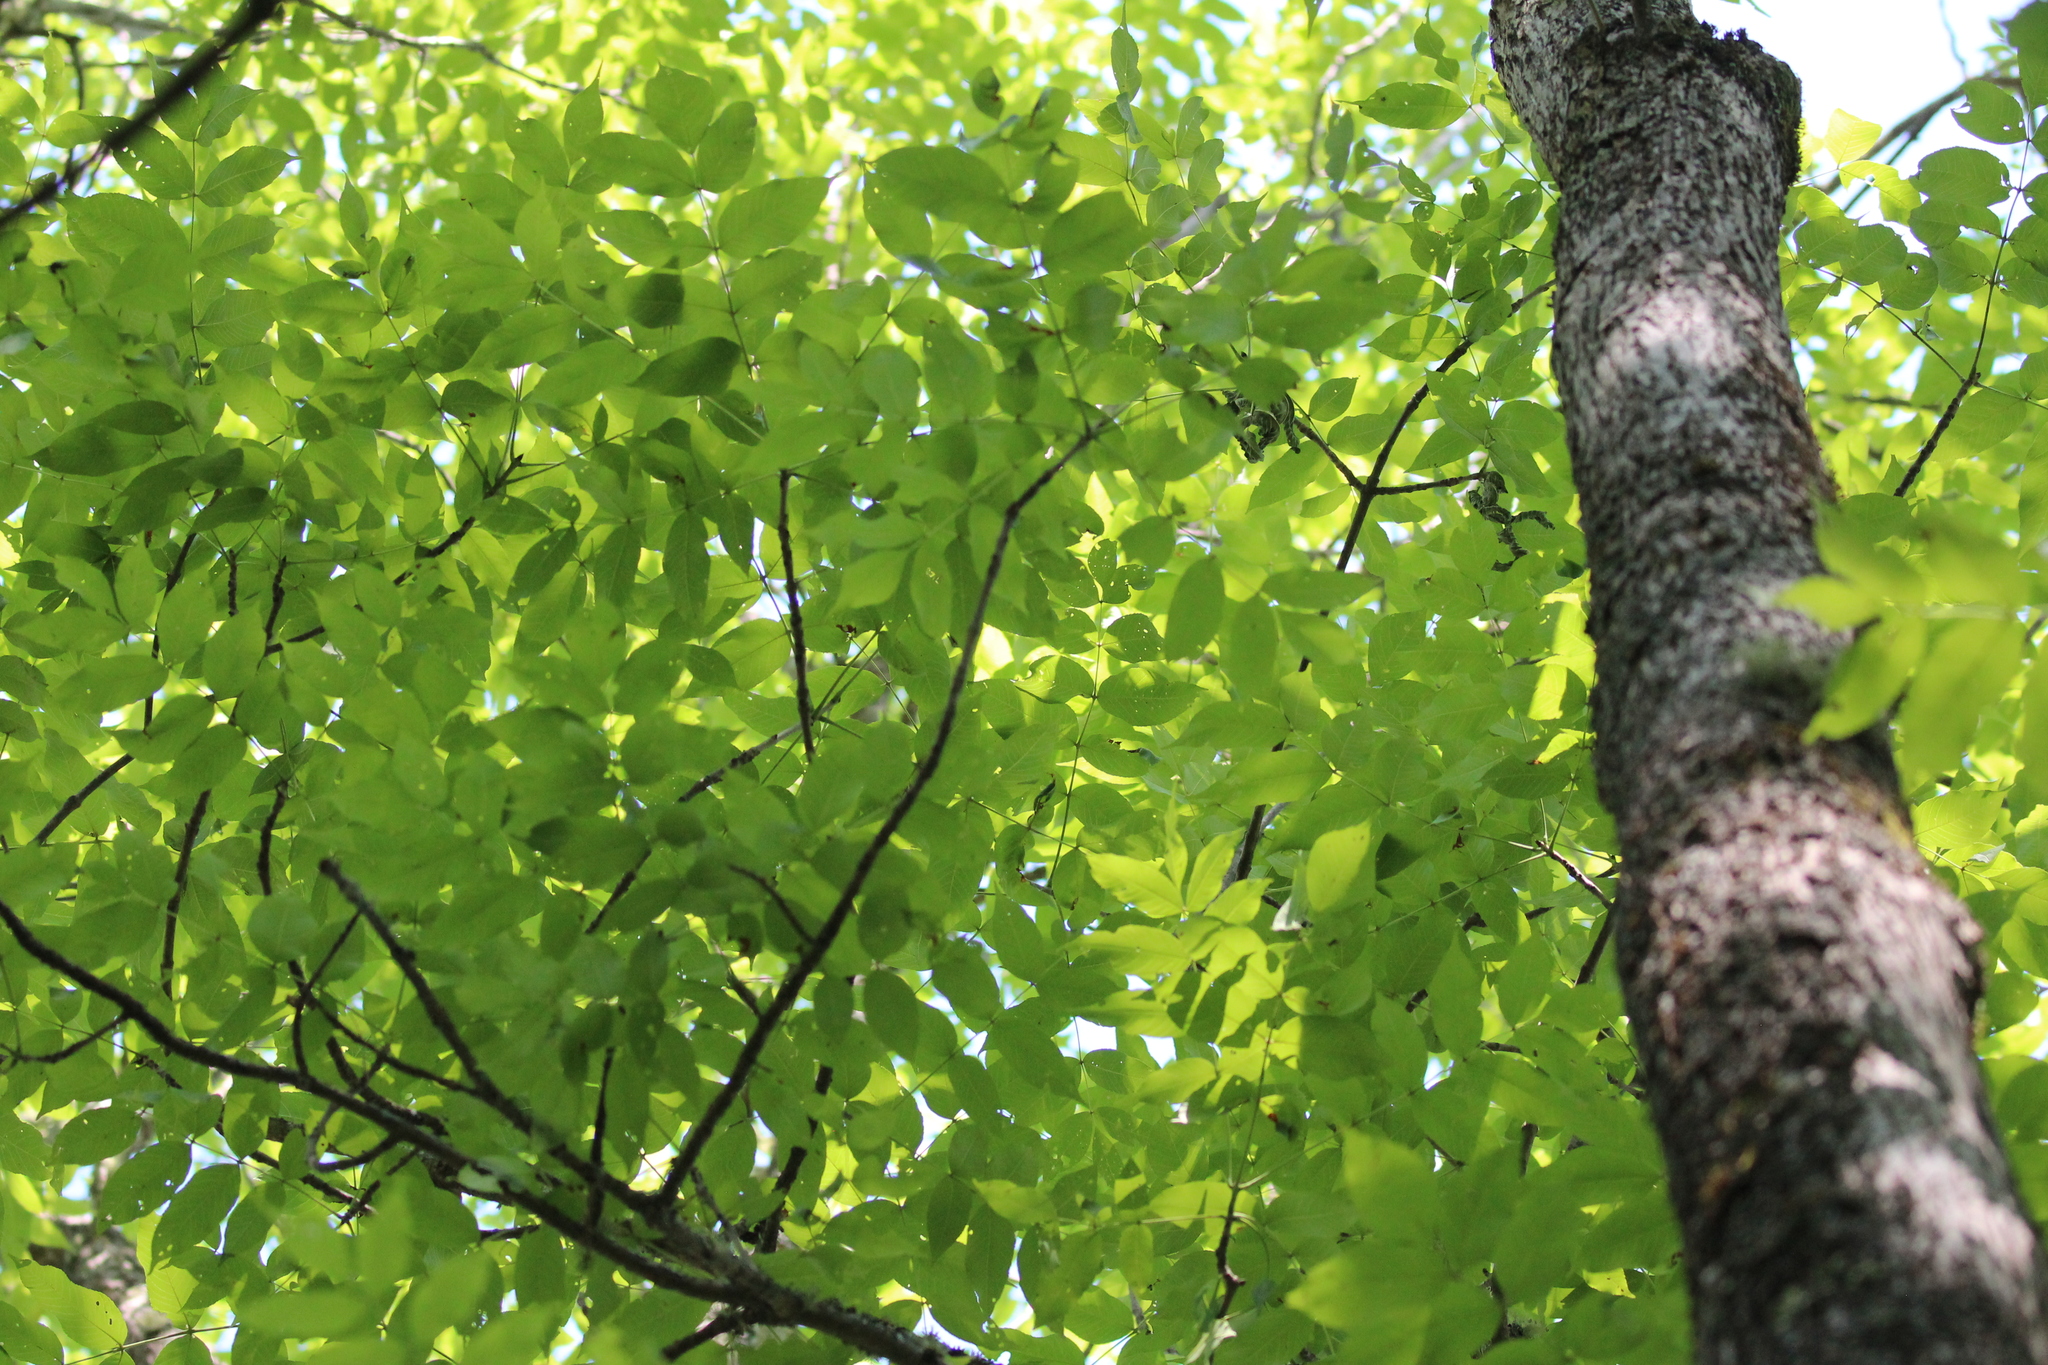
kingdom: Plantae
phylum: Tracheophyta
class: Magnoliopsida
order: Lamiales
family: Oleaceae
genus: Fraxinus
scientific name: Fraxinus nigra
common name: Black ash
